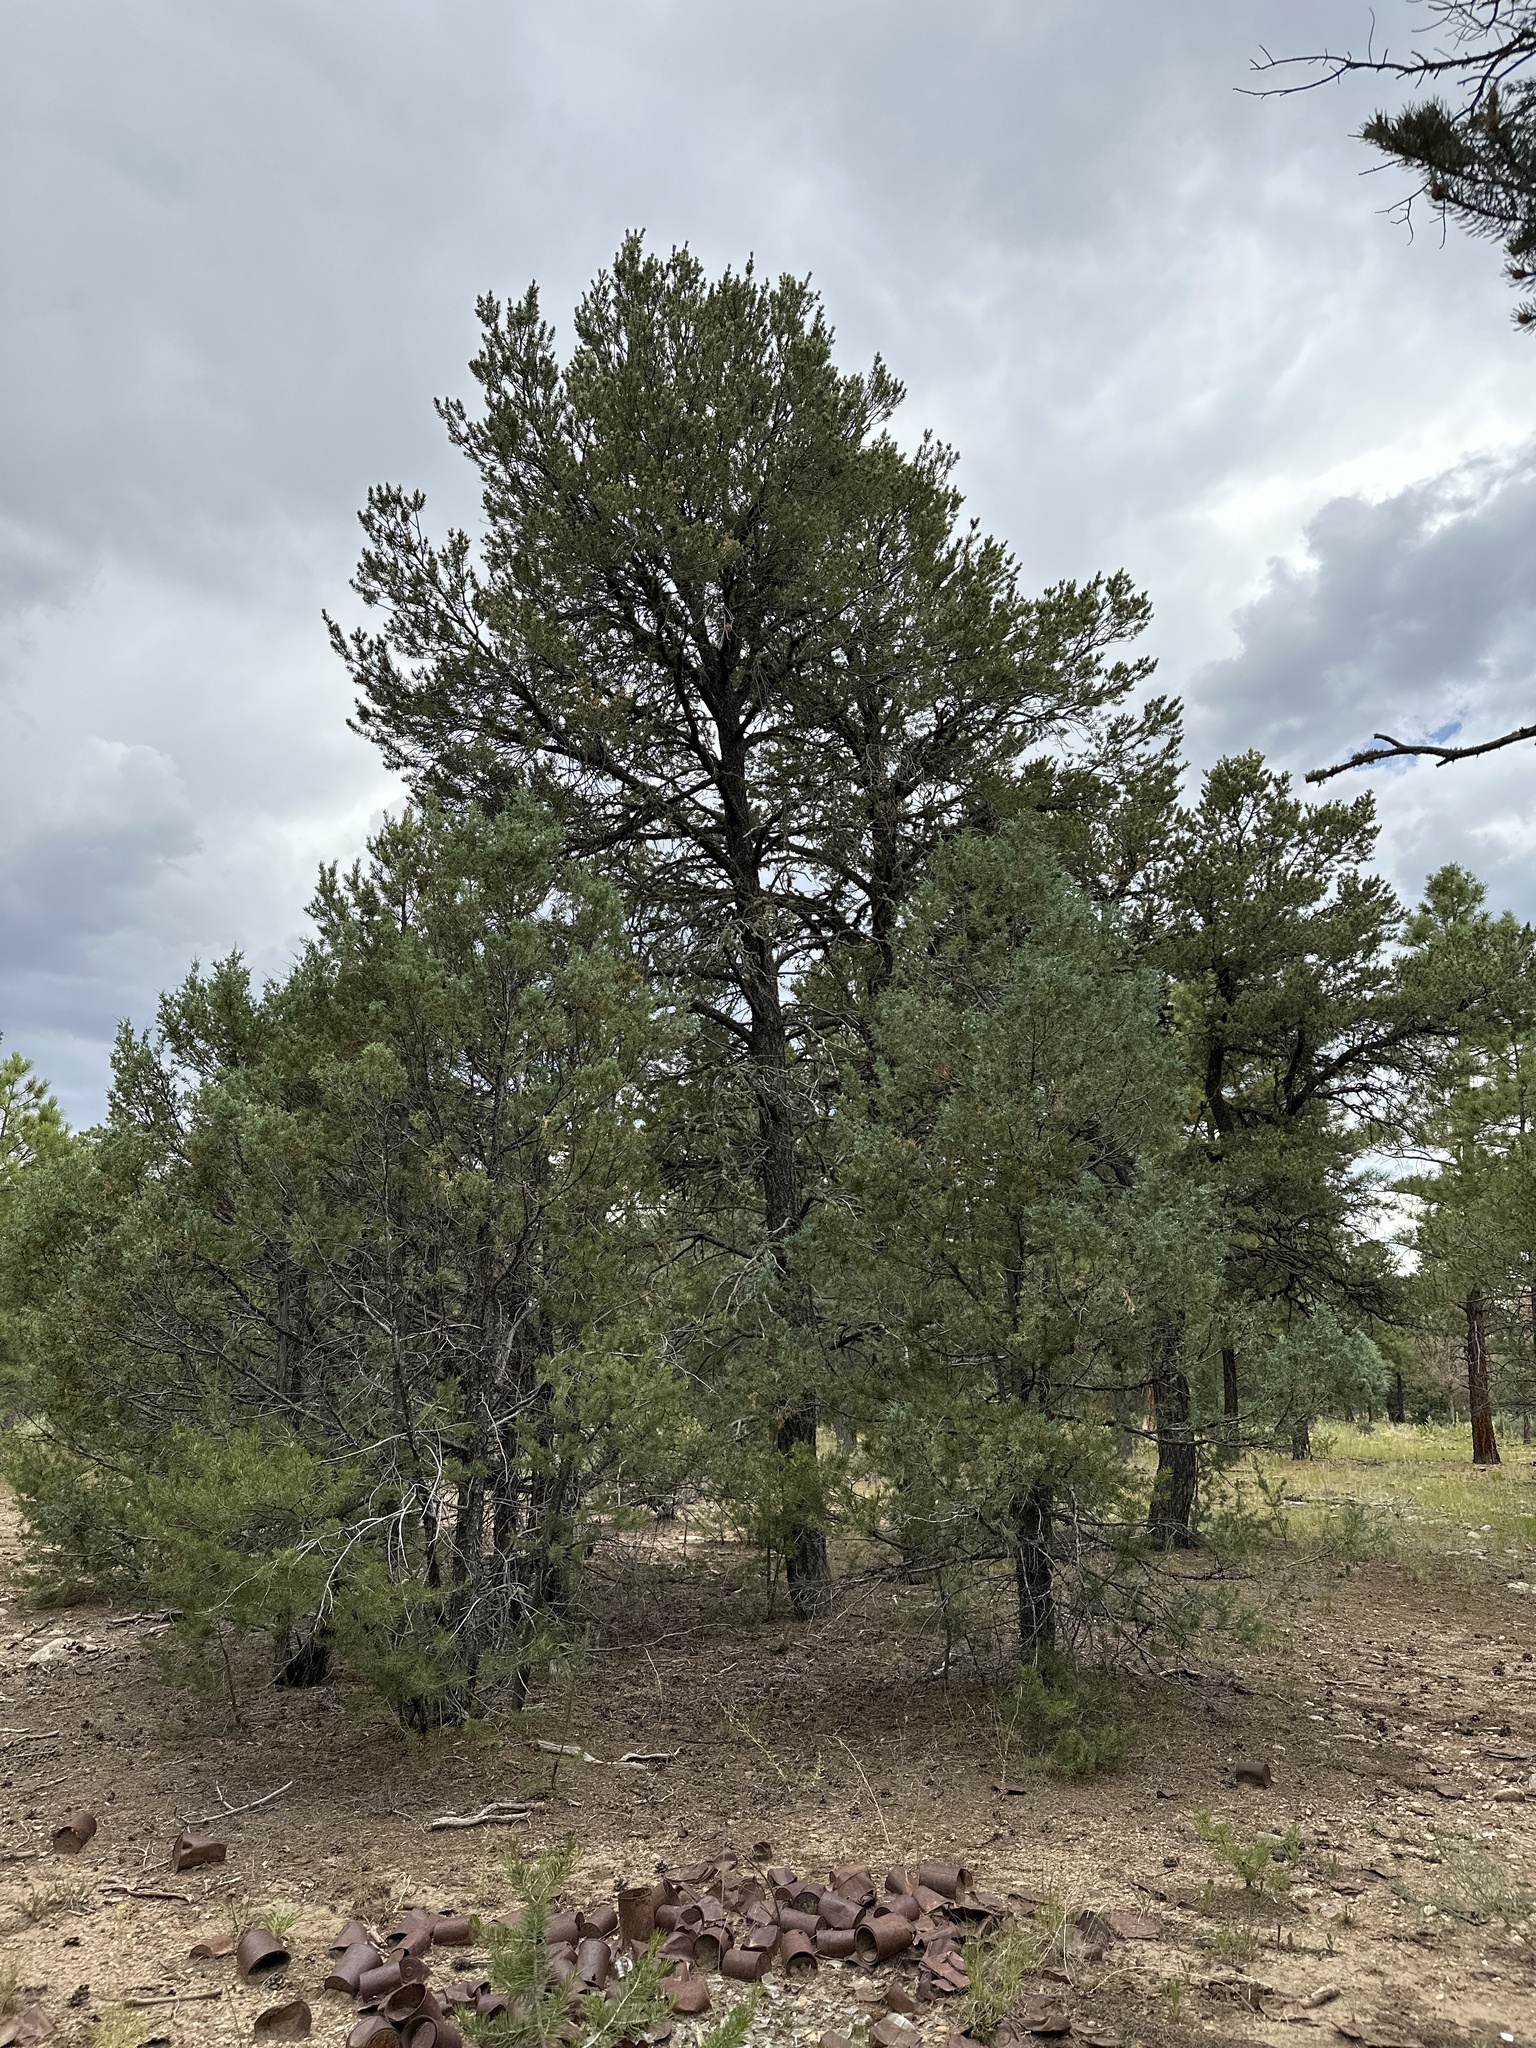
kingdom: Plantae
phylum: Tracheophyta
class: Pinopsida
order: Pinales
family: Pinaceae
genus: Pinus
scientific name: Pinus edulis
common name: Colorado pinyon
